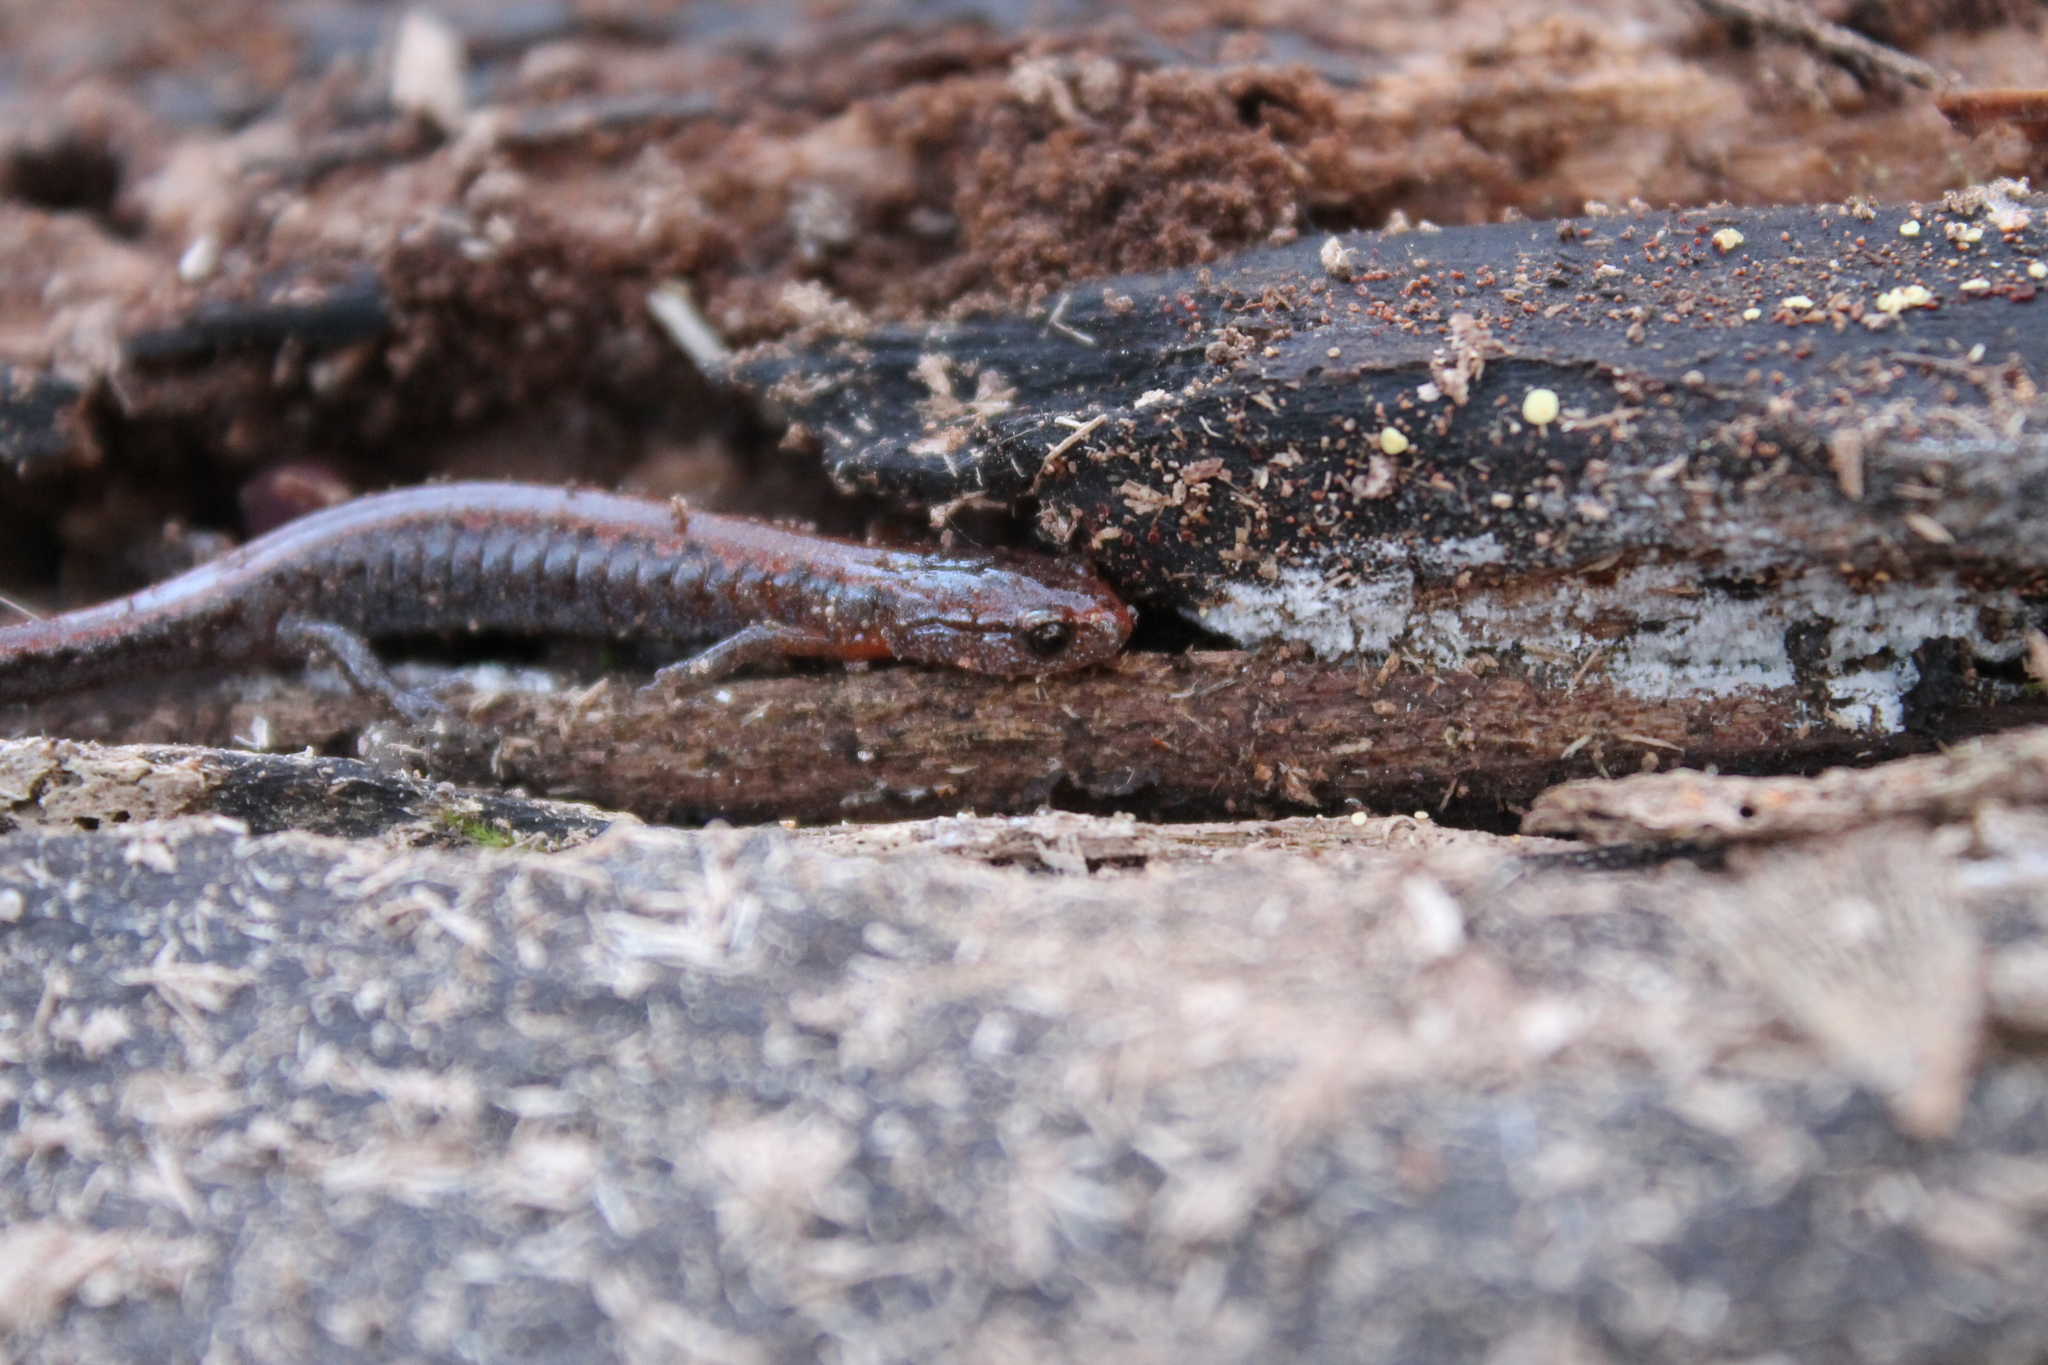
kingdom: Animalia
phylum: Chordata
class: Amphibia
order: Caudata
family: Plethodontidae
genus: Plethodon
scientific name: Plethodon dorsalis
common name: Northern zigzag salamander
